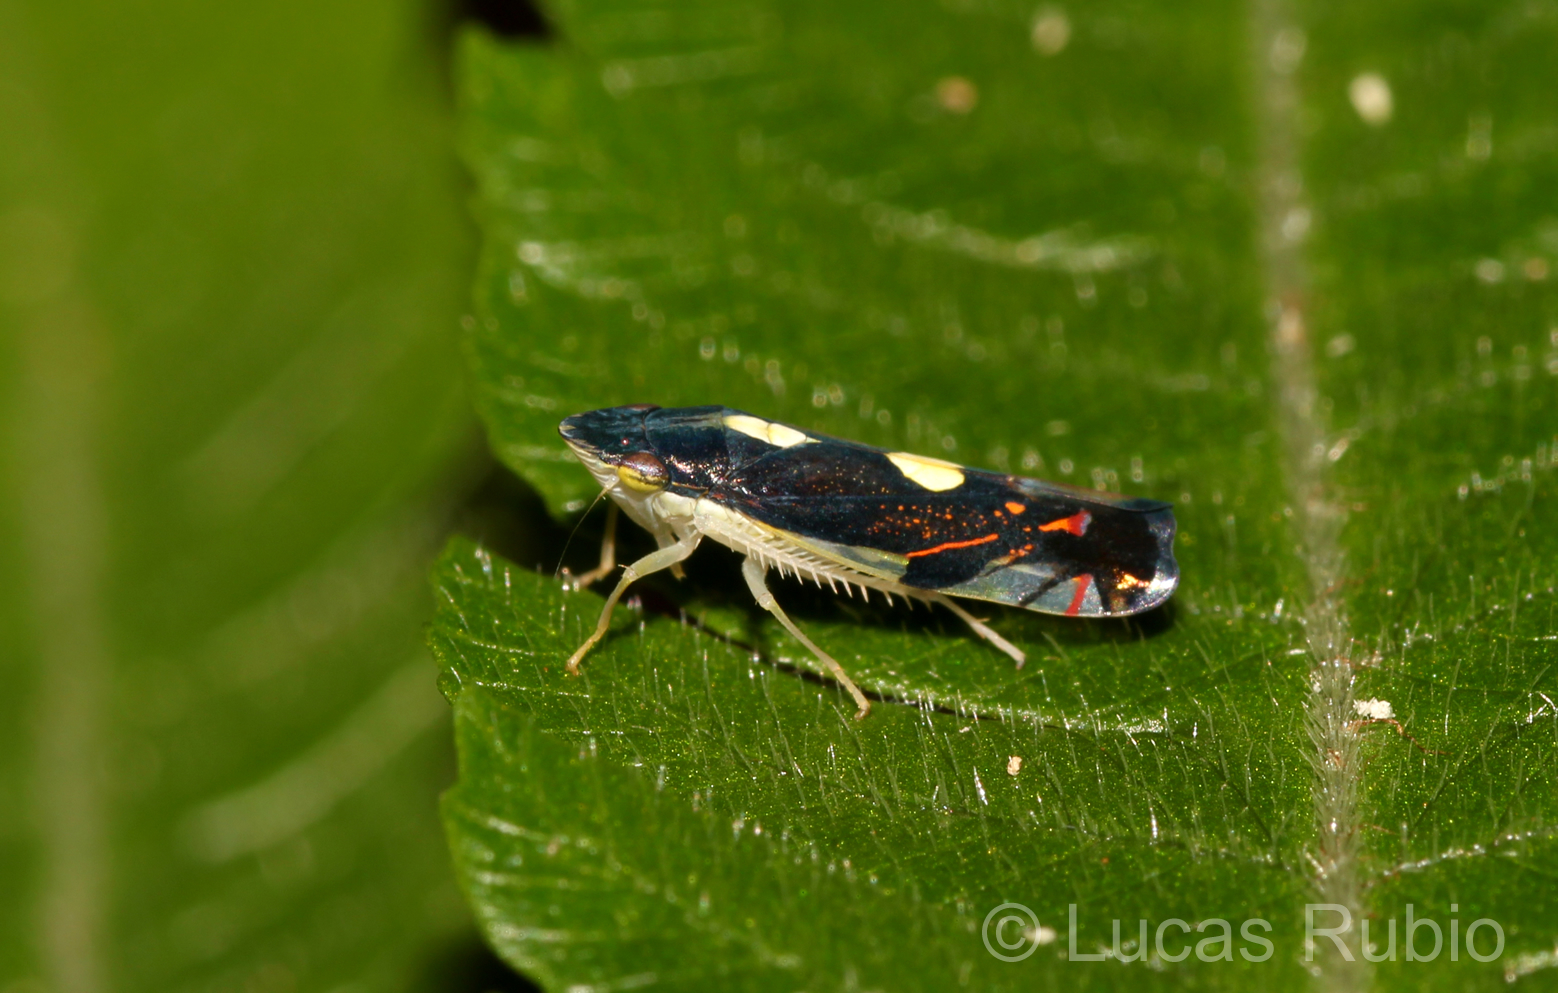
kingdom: Animalia
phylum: Arthropoda
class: Insecta
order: Hemiptera
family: Cicadellidae
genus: Diedrocephala
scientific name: Diedrocephala variegata
